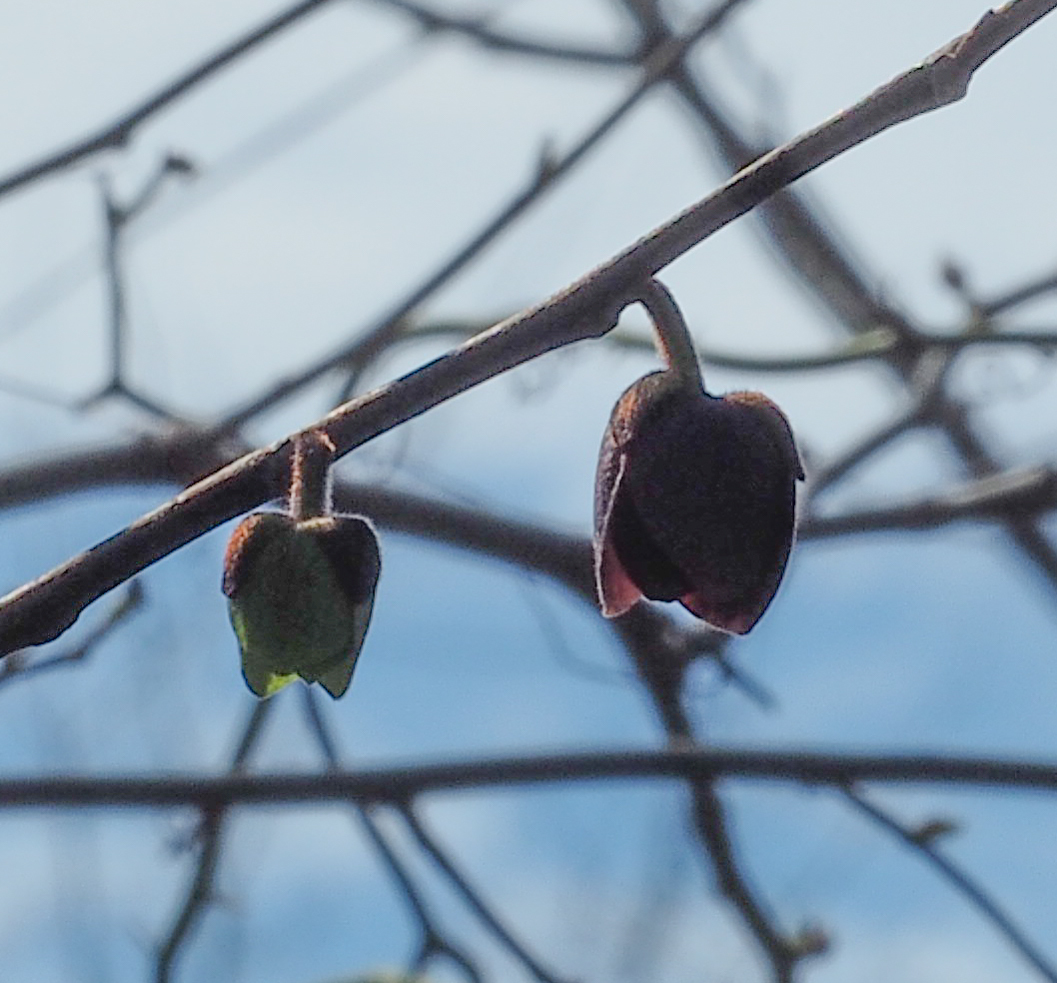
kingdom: Plantae
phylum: Tracheophyta
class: Magnoliopsida
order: Magnoliales
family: Annonaceae
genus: Asimina
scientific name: Asimina triloba
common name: Dog-banana
